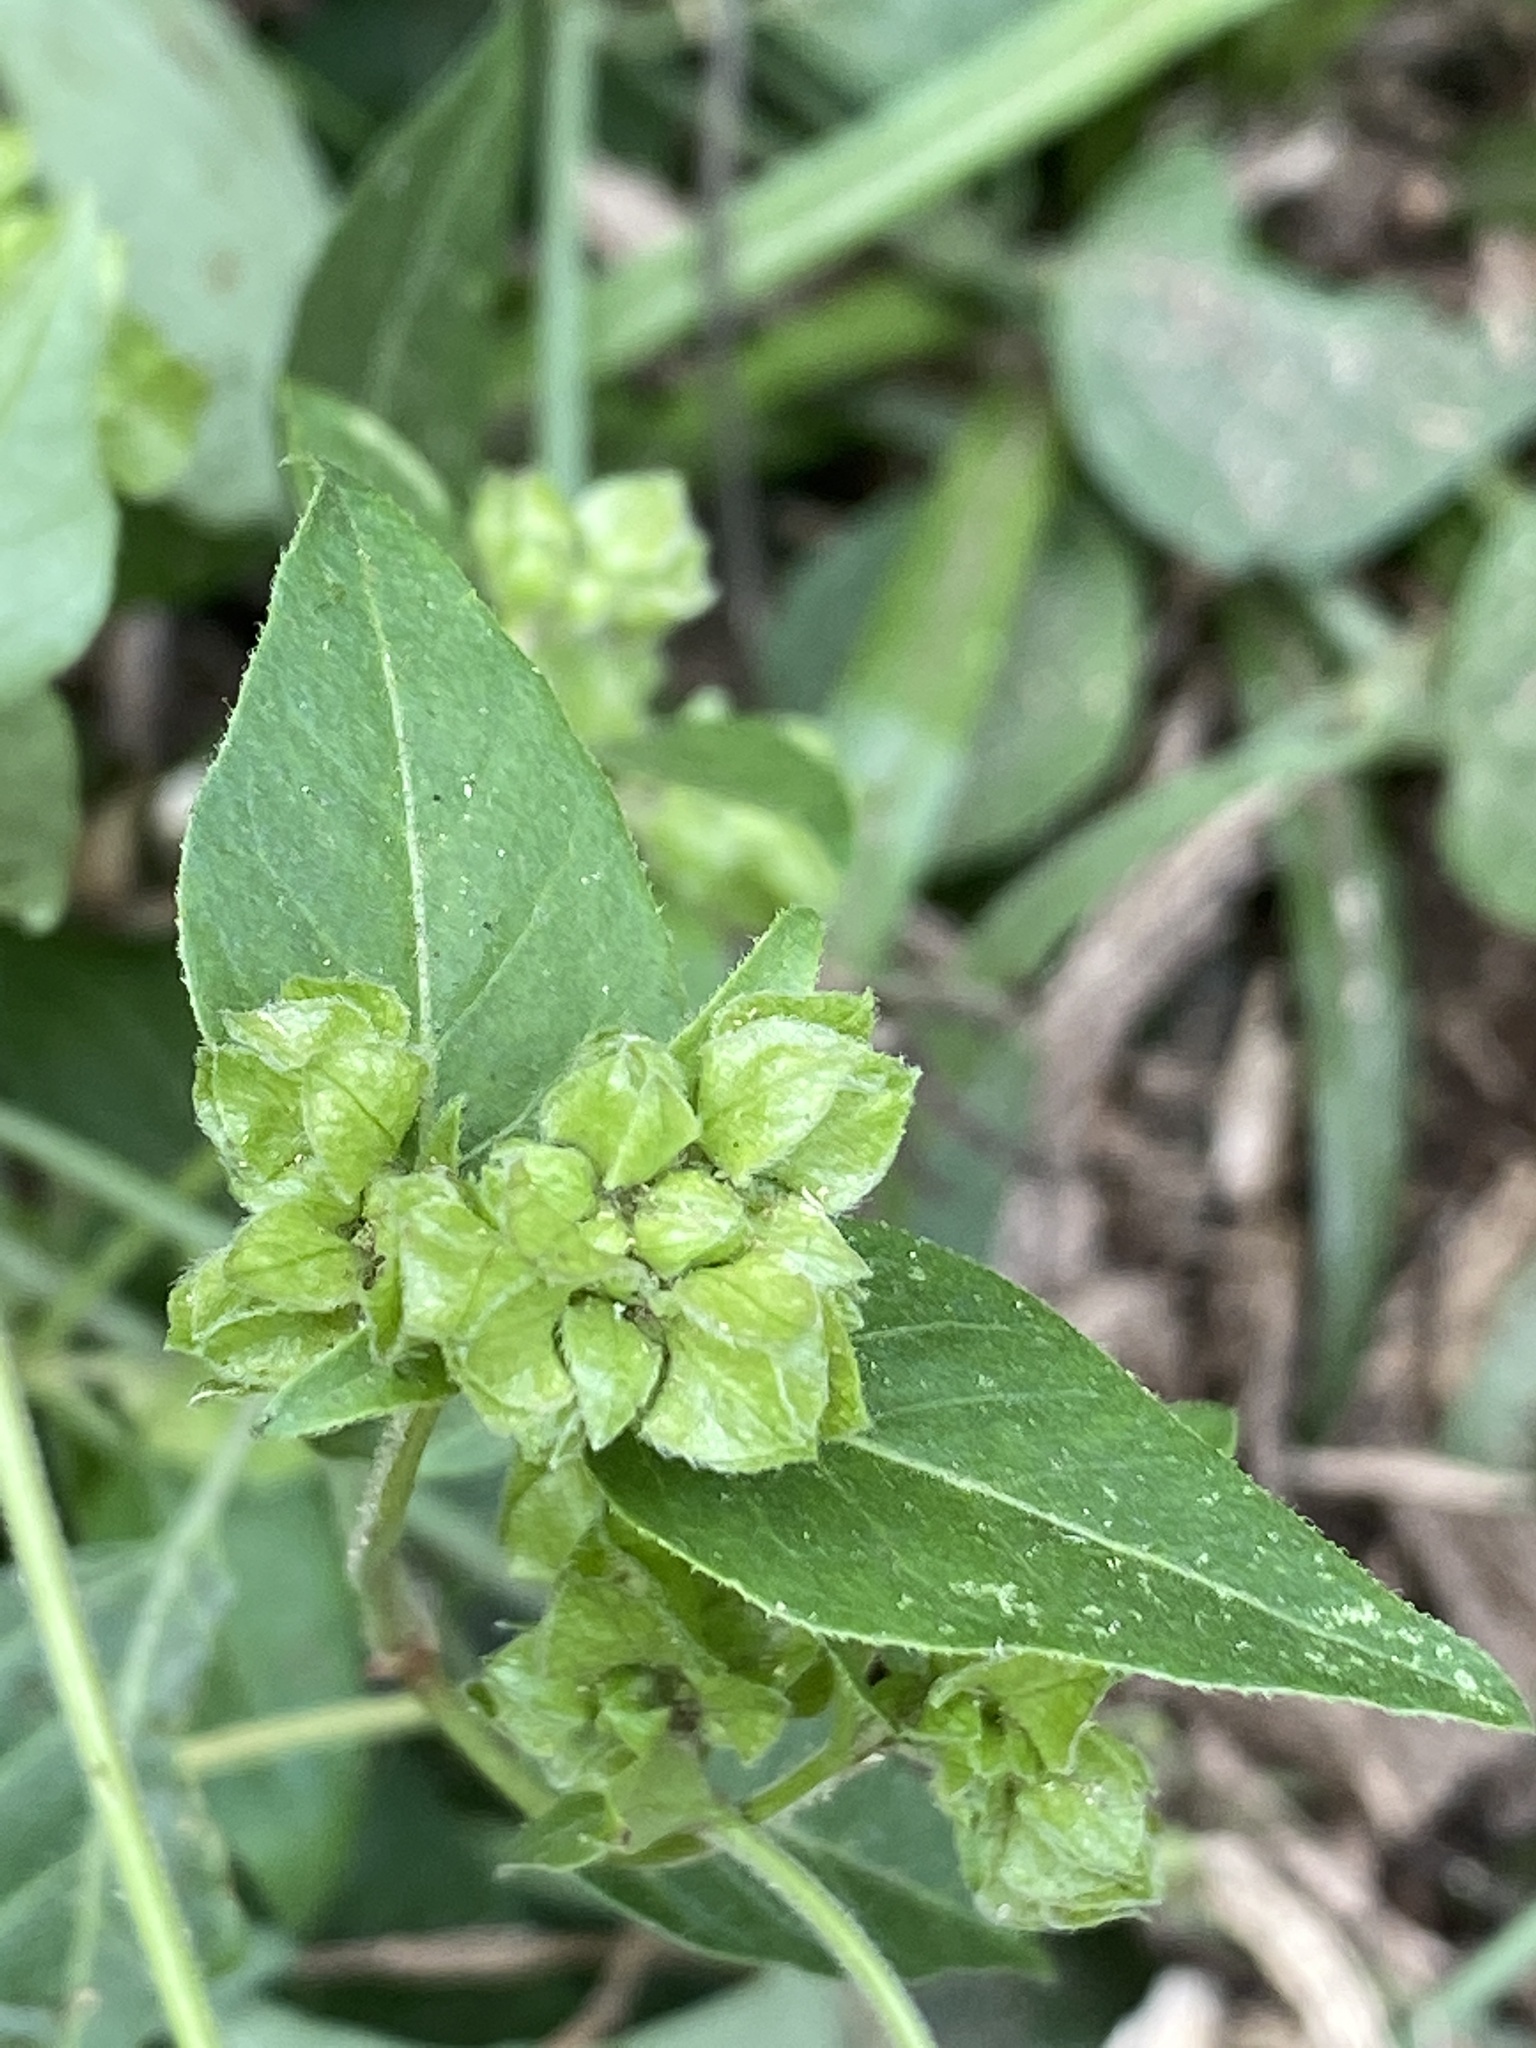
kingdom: Plantae
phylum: Tracheophyta
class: Magnoliopsida
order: Caryophyllales
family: Nyctaginaceae
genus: Mirabilis
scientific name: Mirabilis nyctaginea
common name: Umbrella wort
